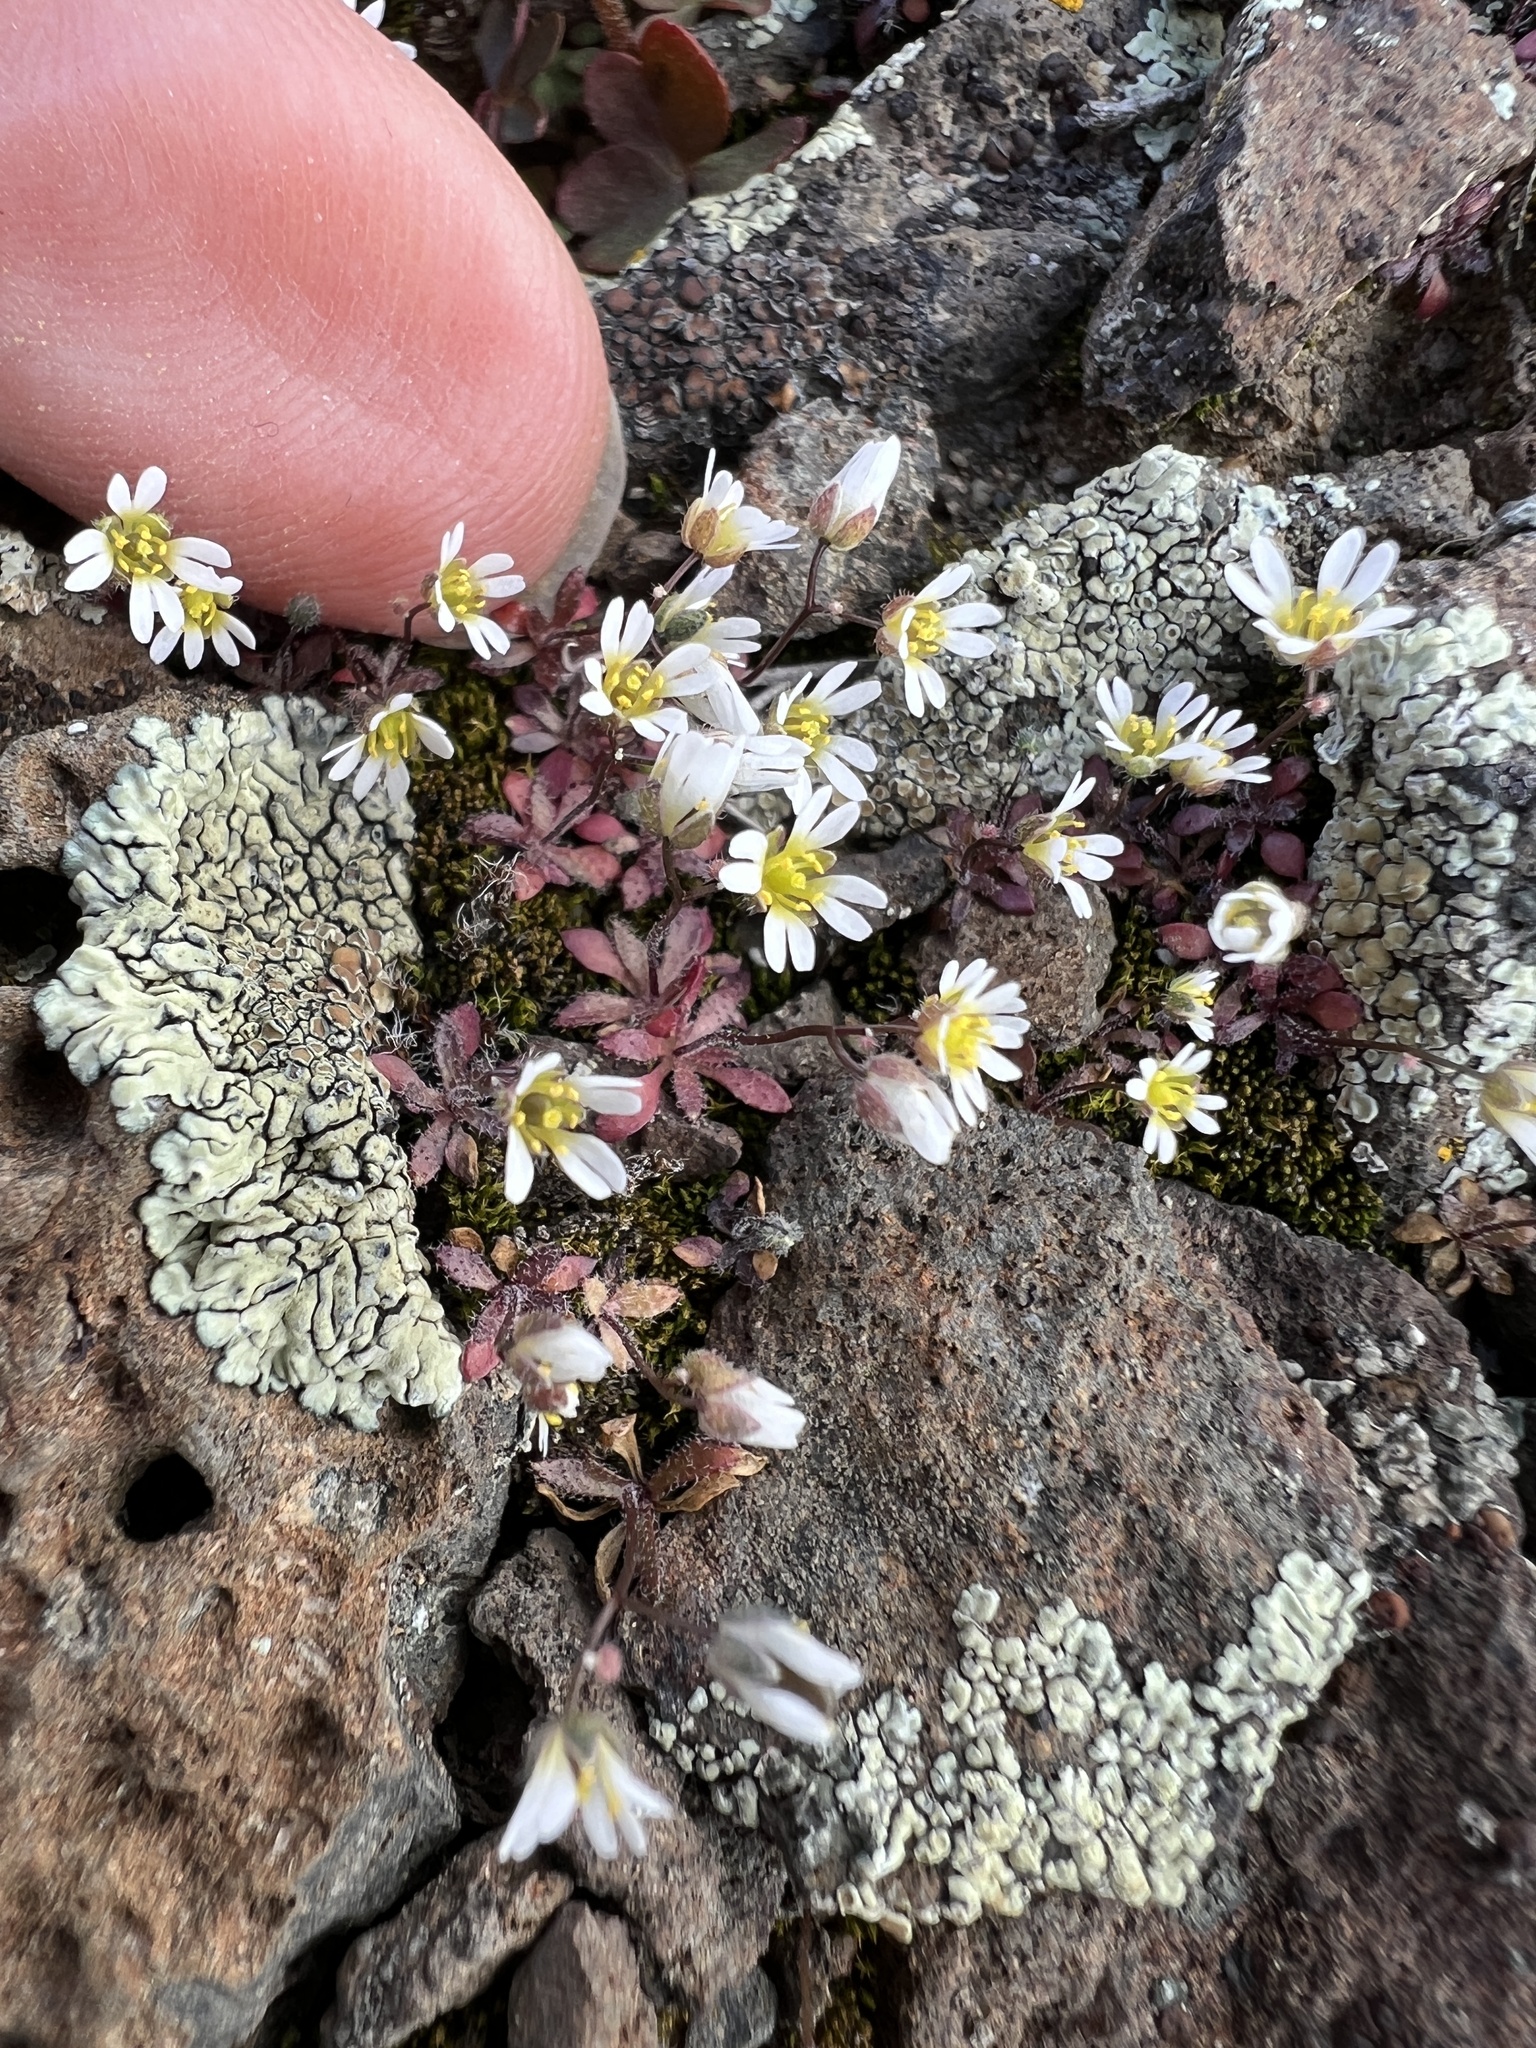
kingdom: Plantae
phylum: Tracheophyta
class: Magnoliopsida
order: Brassicales
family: Brassicaceae
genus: Draba
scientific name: Draba verna
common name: Spring draba
